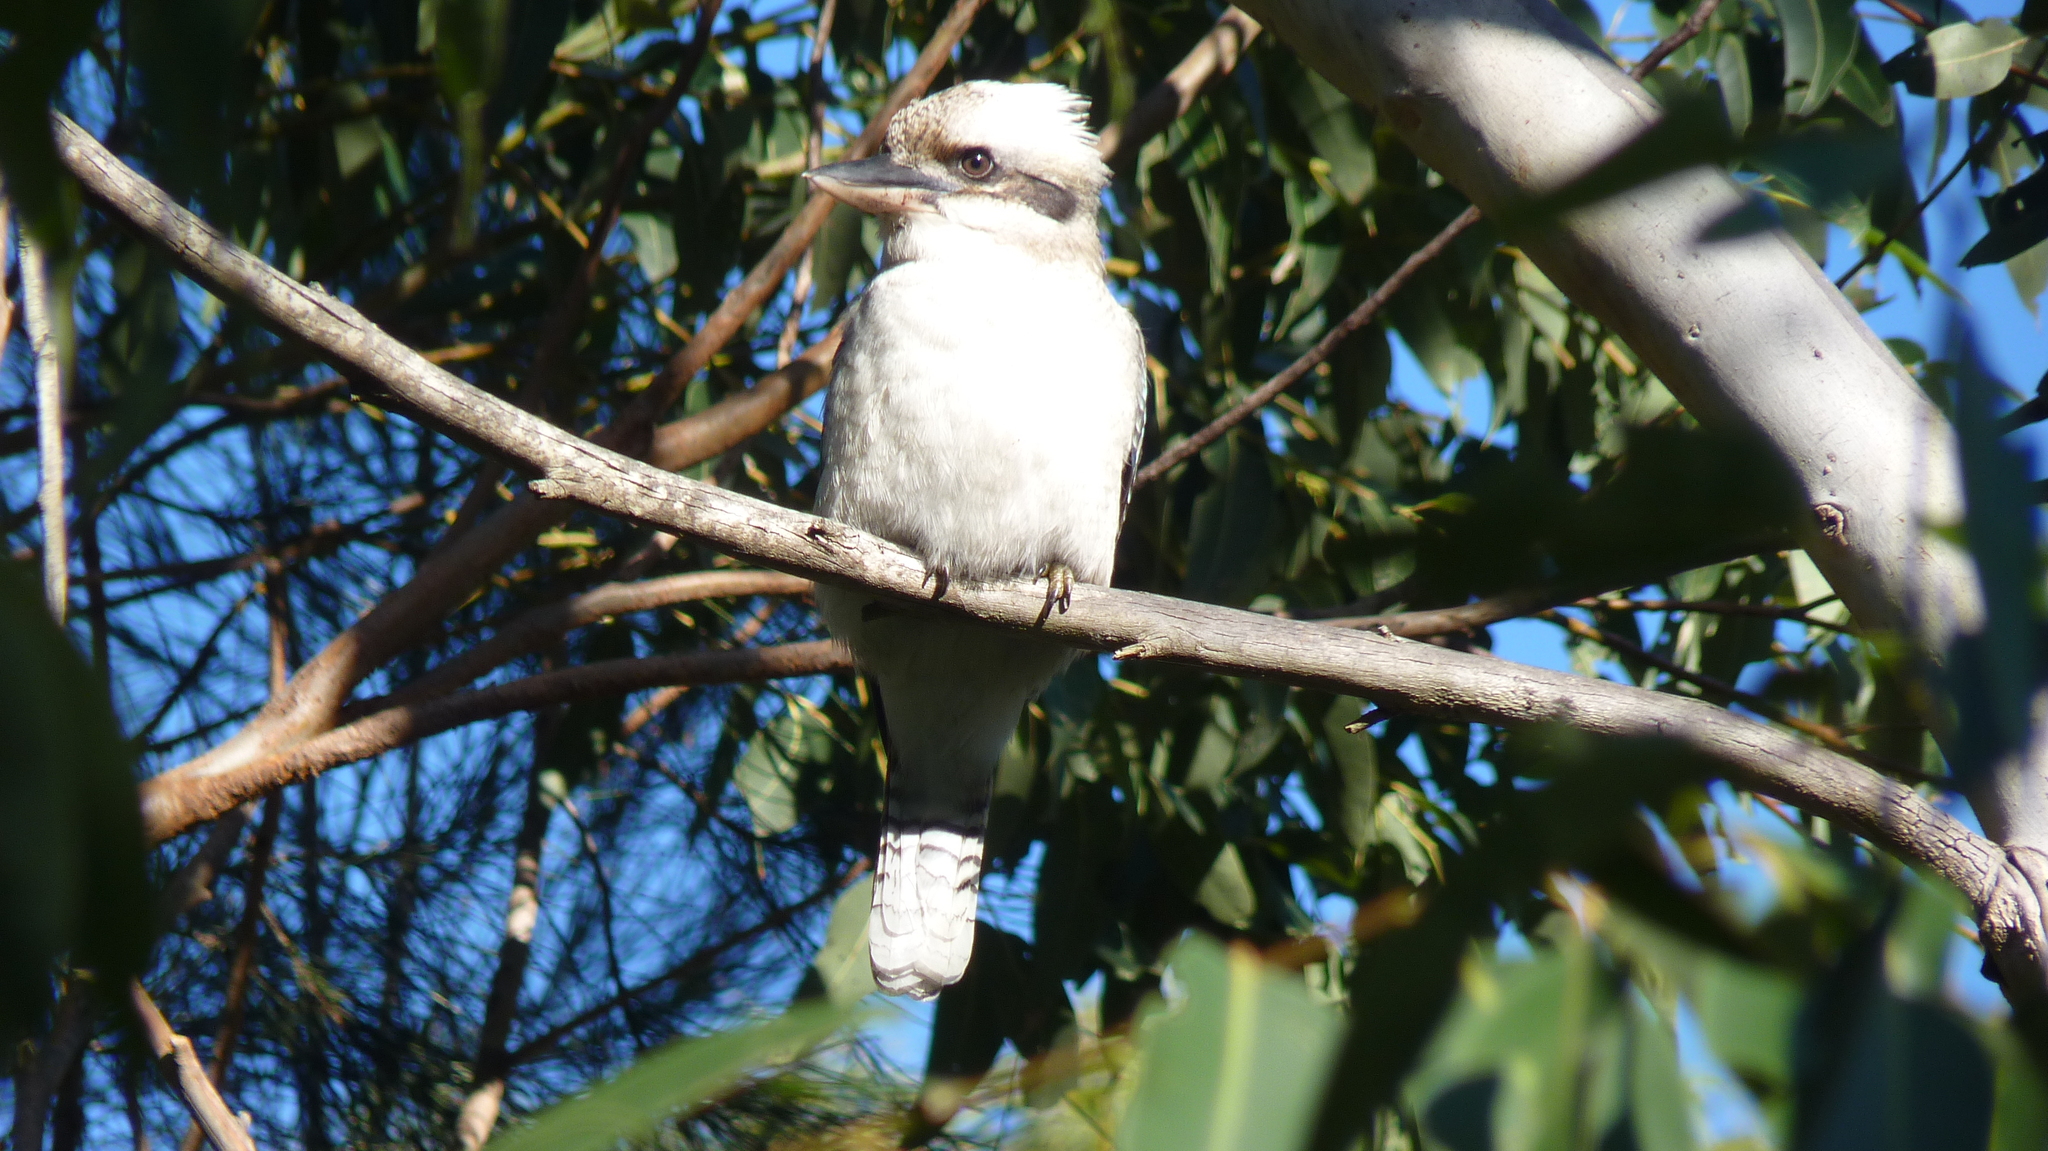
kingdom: Animalia
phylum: Chordata
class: Aves
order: Coraciiformes
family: Alcedinidae
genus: Dacelo
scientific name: Dacelo novaeguineae
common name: Laughing kookaburra
